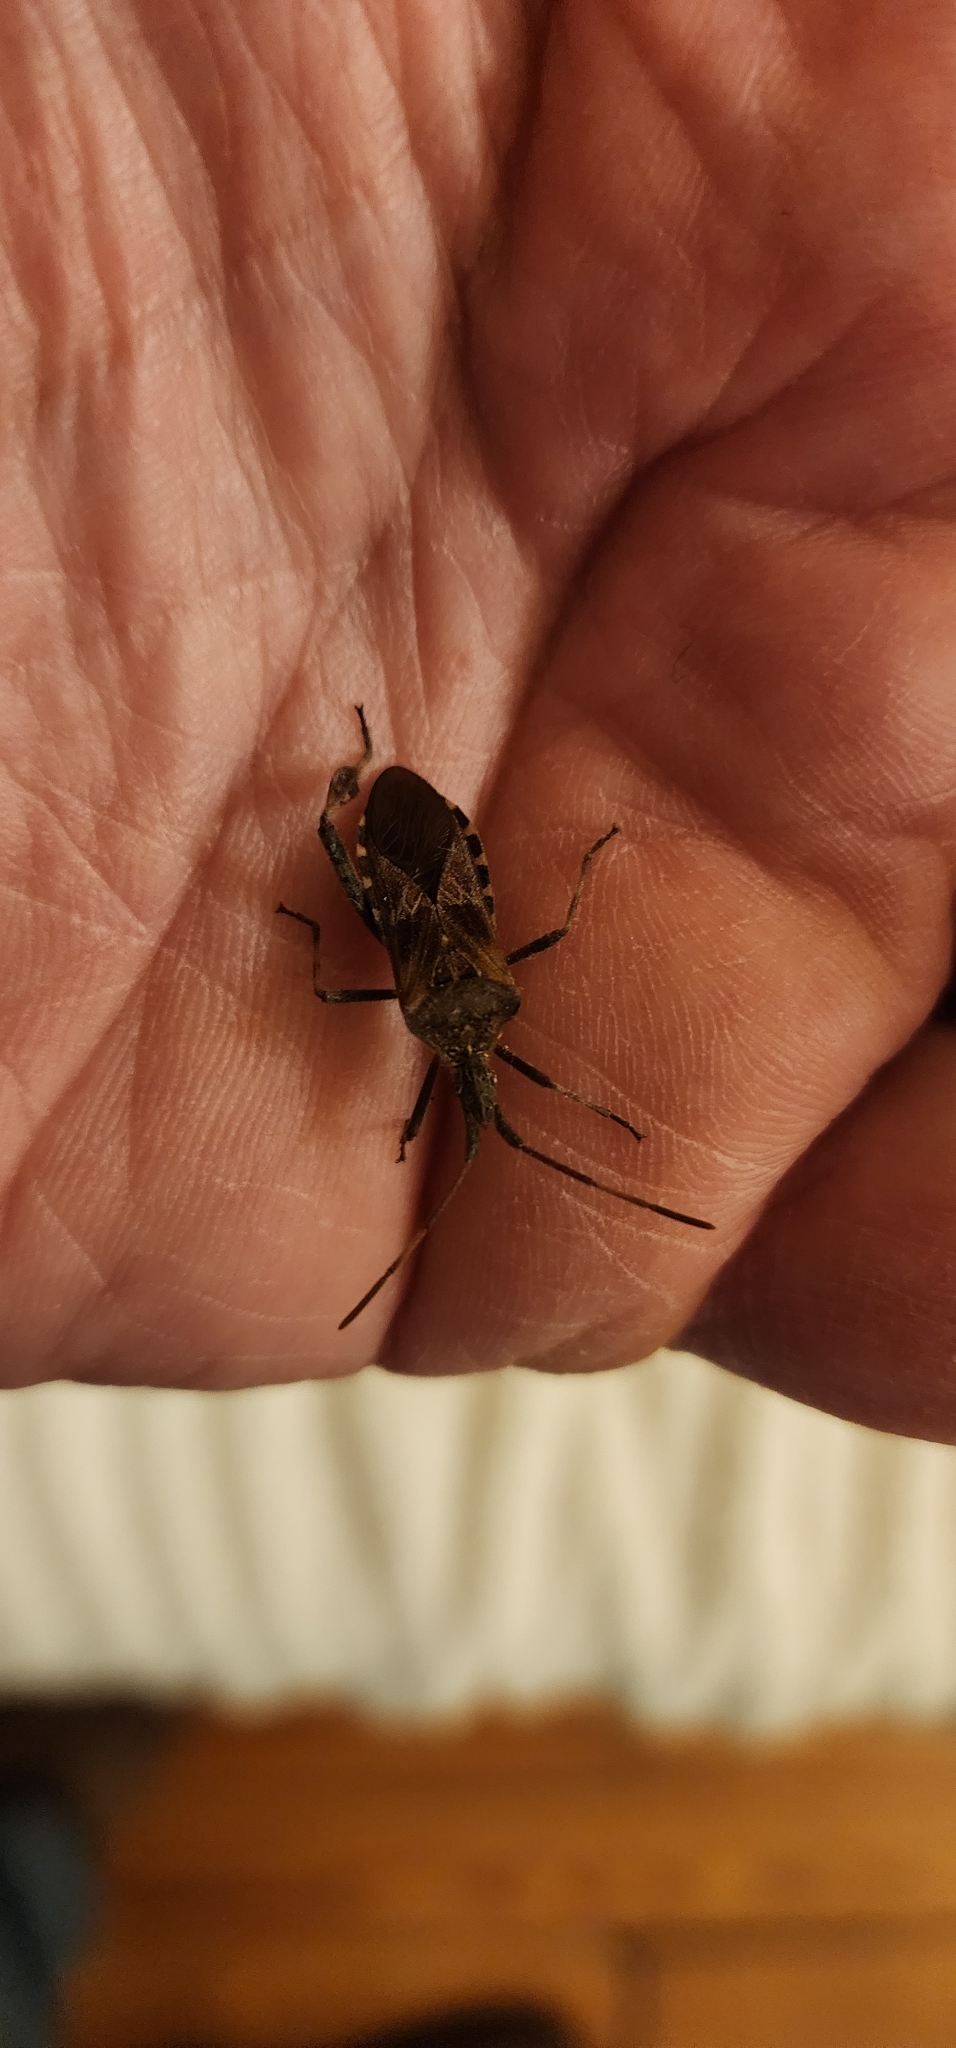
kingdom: Animalia
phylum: Arthropoda
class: Insecta
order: Hemiptera
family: Coreidae
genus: Leptoglossus
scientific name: Leptoglossus occidentalis
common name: Western conifer-seed bug
